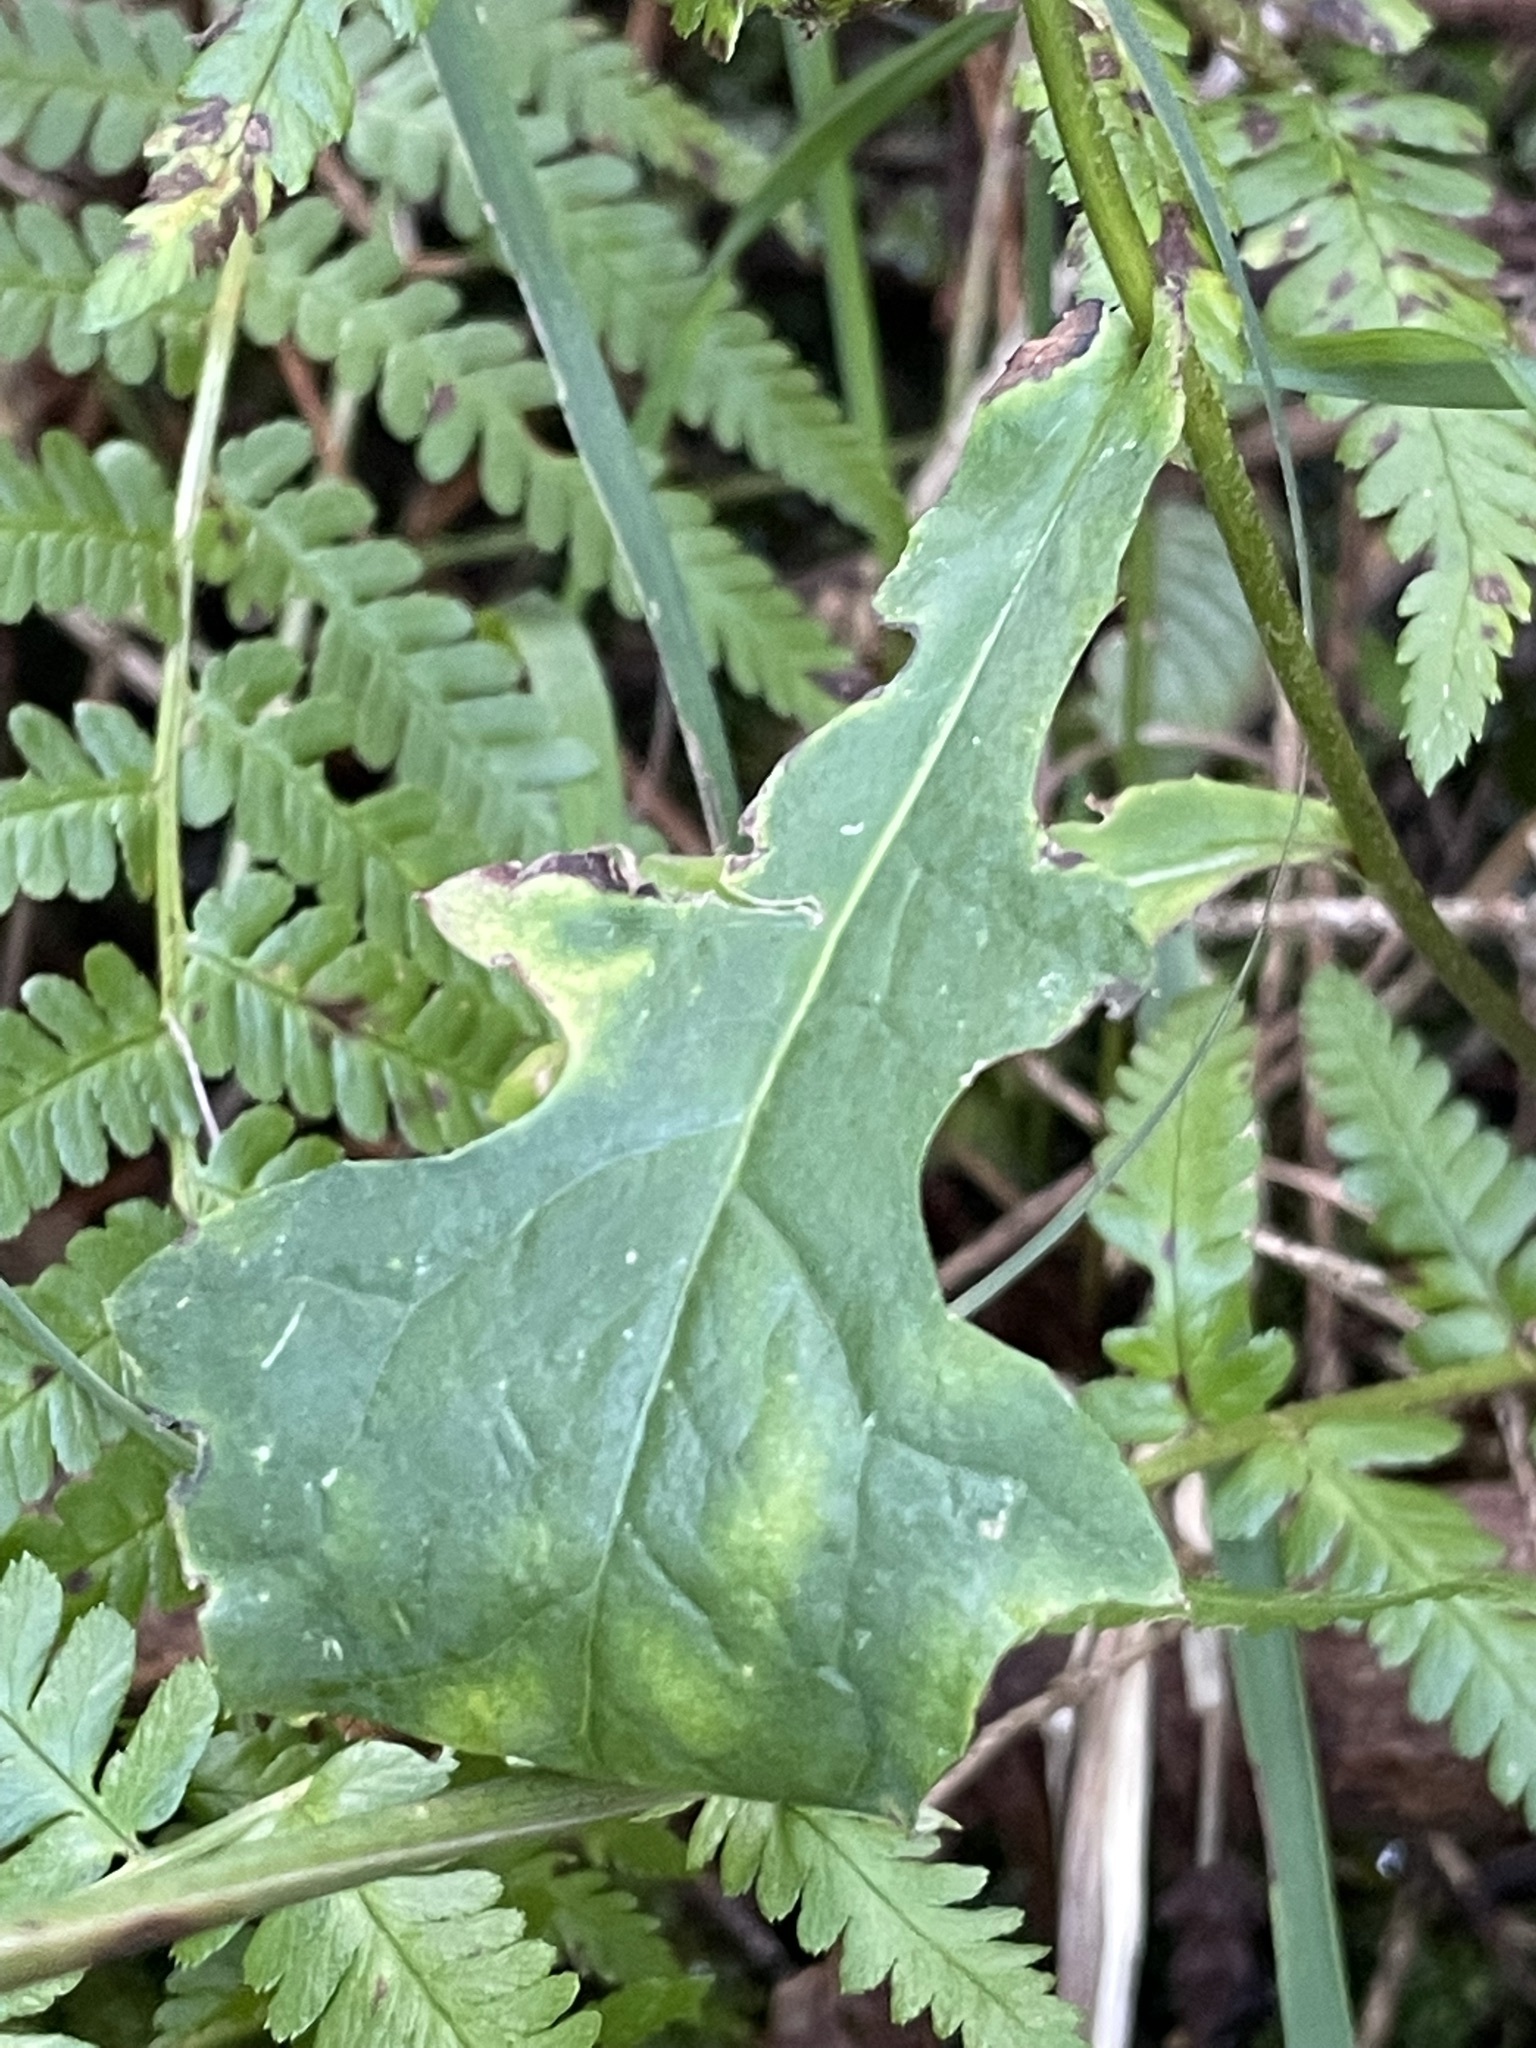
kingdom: Plantae
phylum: Tracheophyta
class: Magnoliopsida
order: Asterales
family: Asteraceae
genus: Prenanthes
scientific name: Prenanthes purpurea
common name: Purple lettuce
